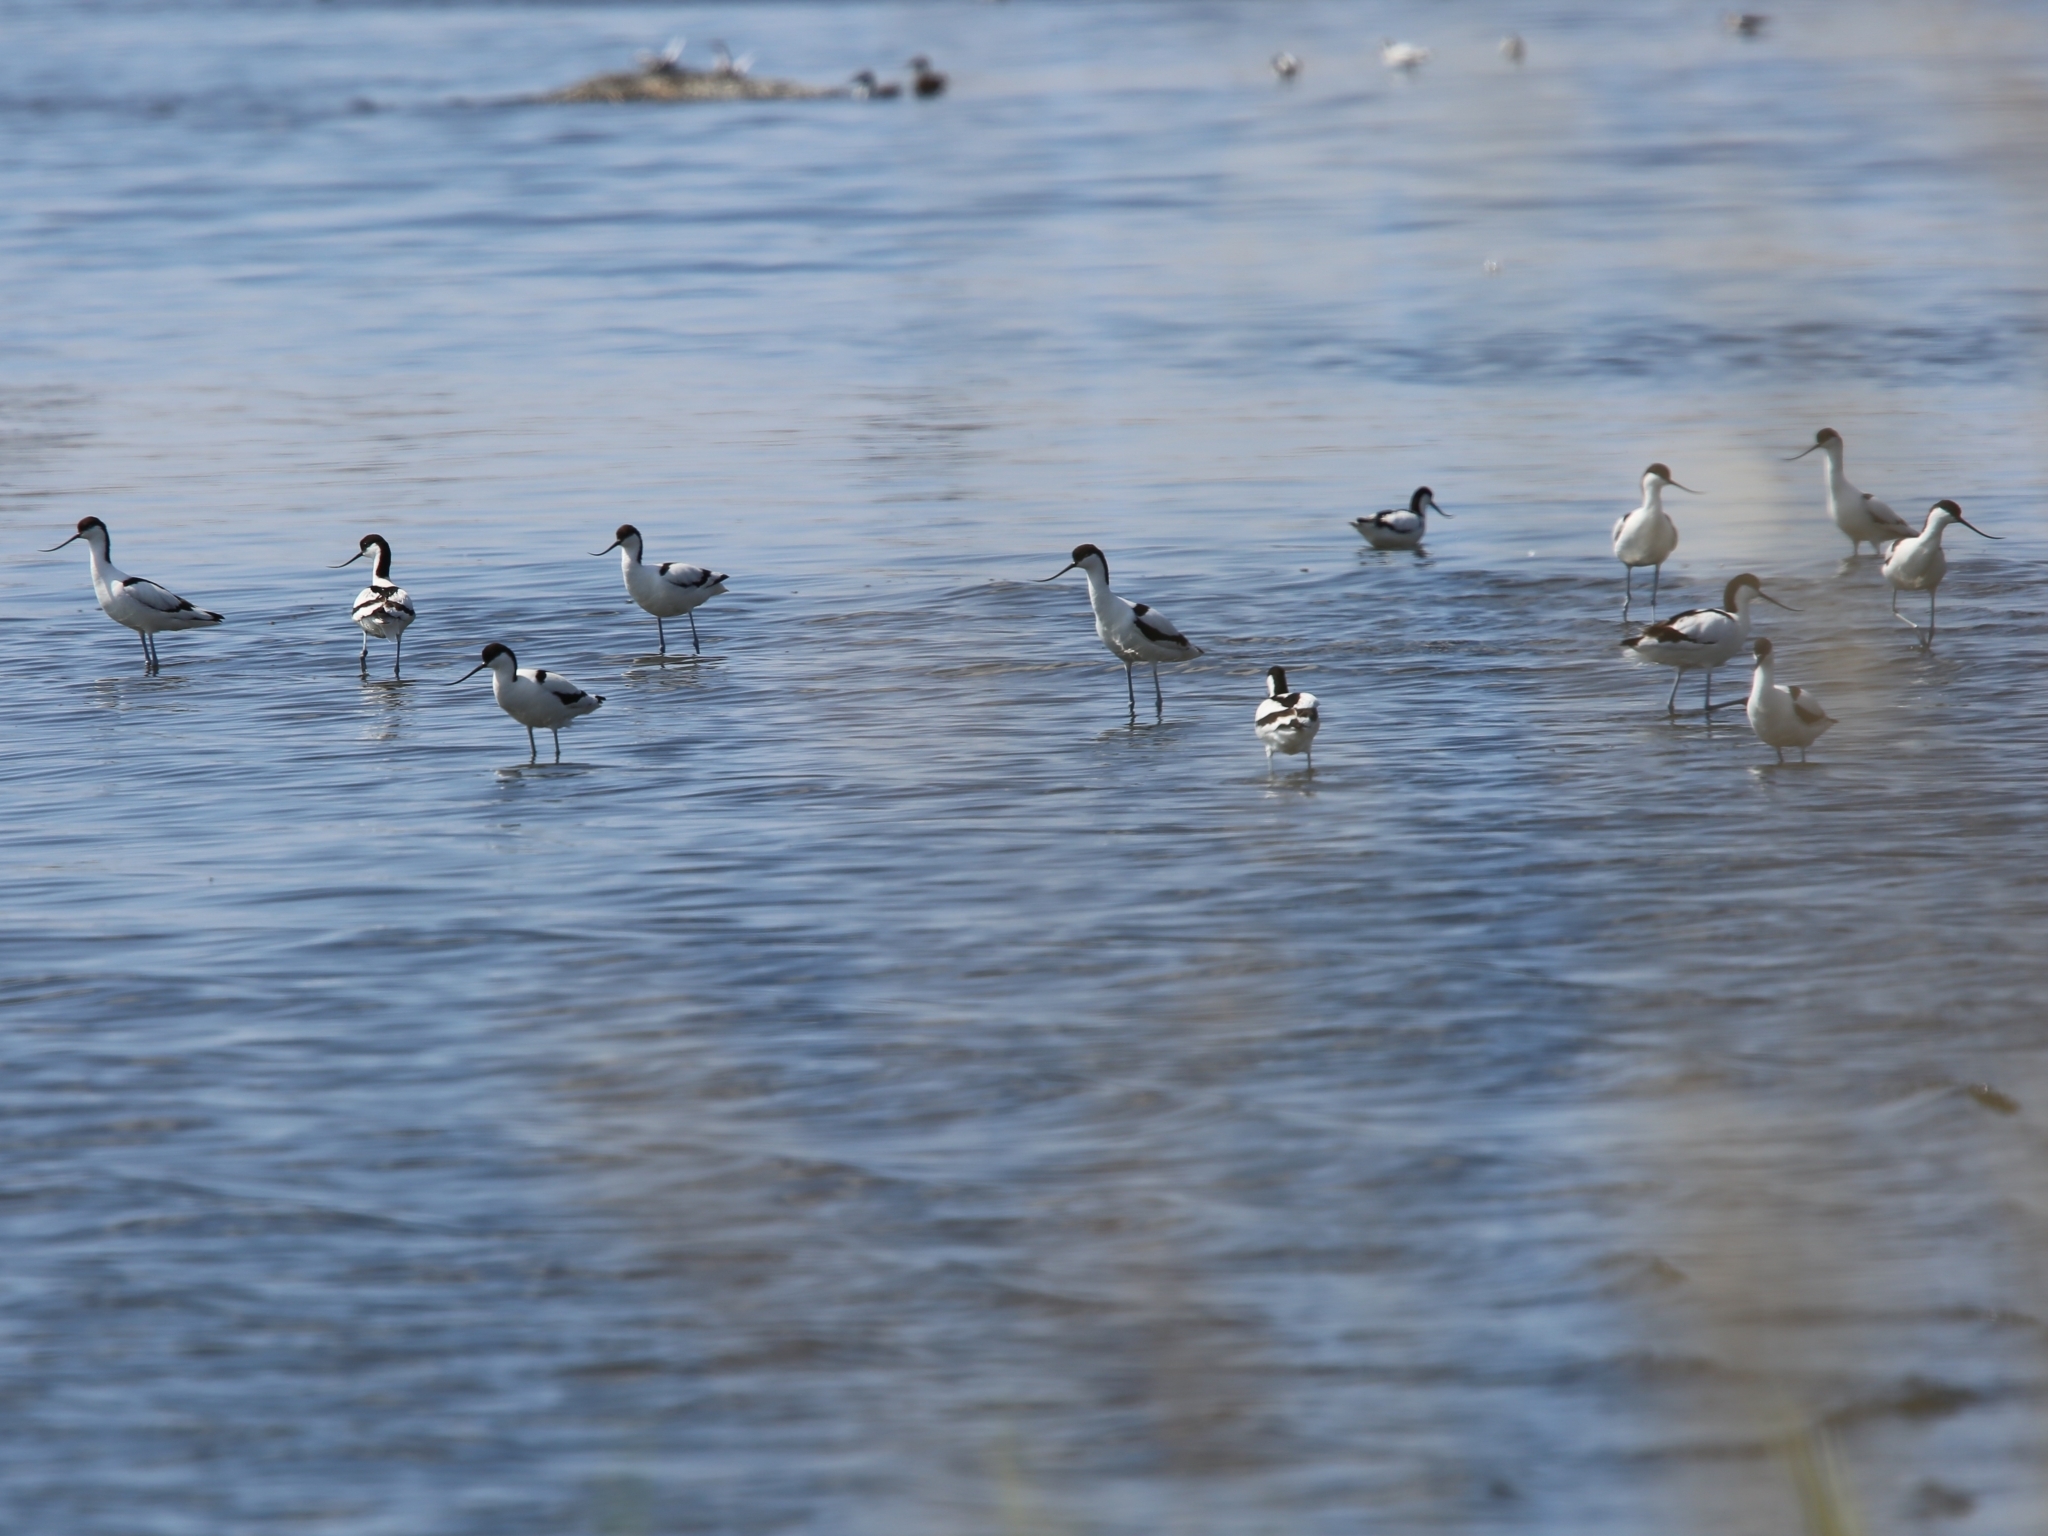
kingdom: Animalia
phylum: Chordata
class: Aves
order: Charadriiformes
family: Recurvirostridae
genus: Recurvirostra
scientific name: Recurvirostra avosetta
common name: Pied avocet
